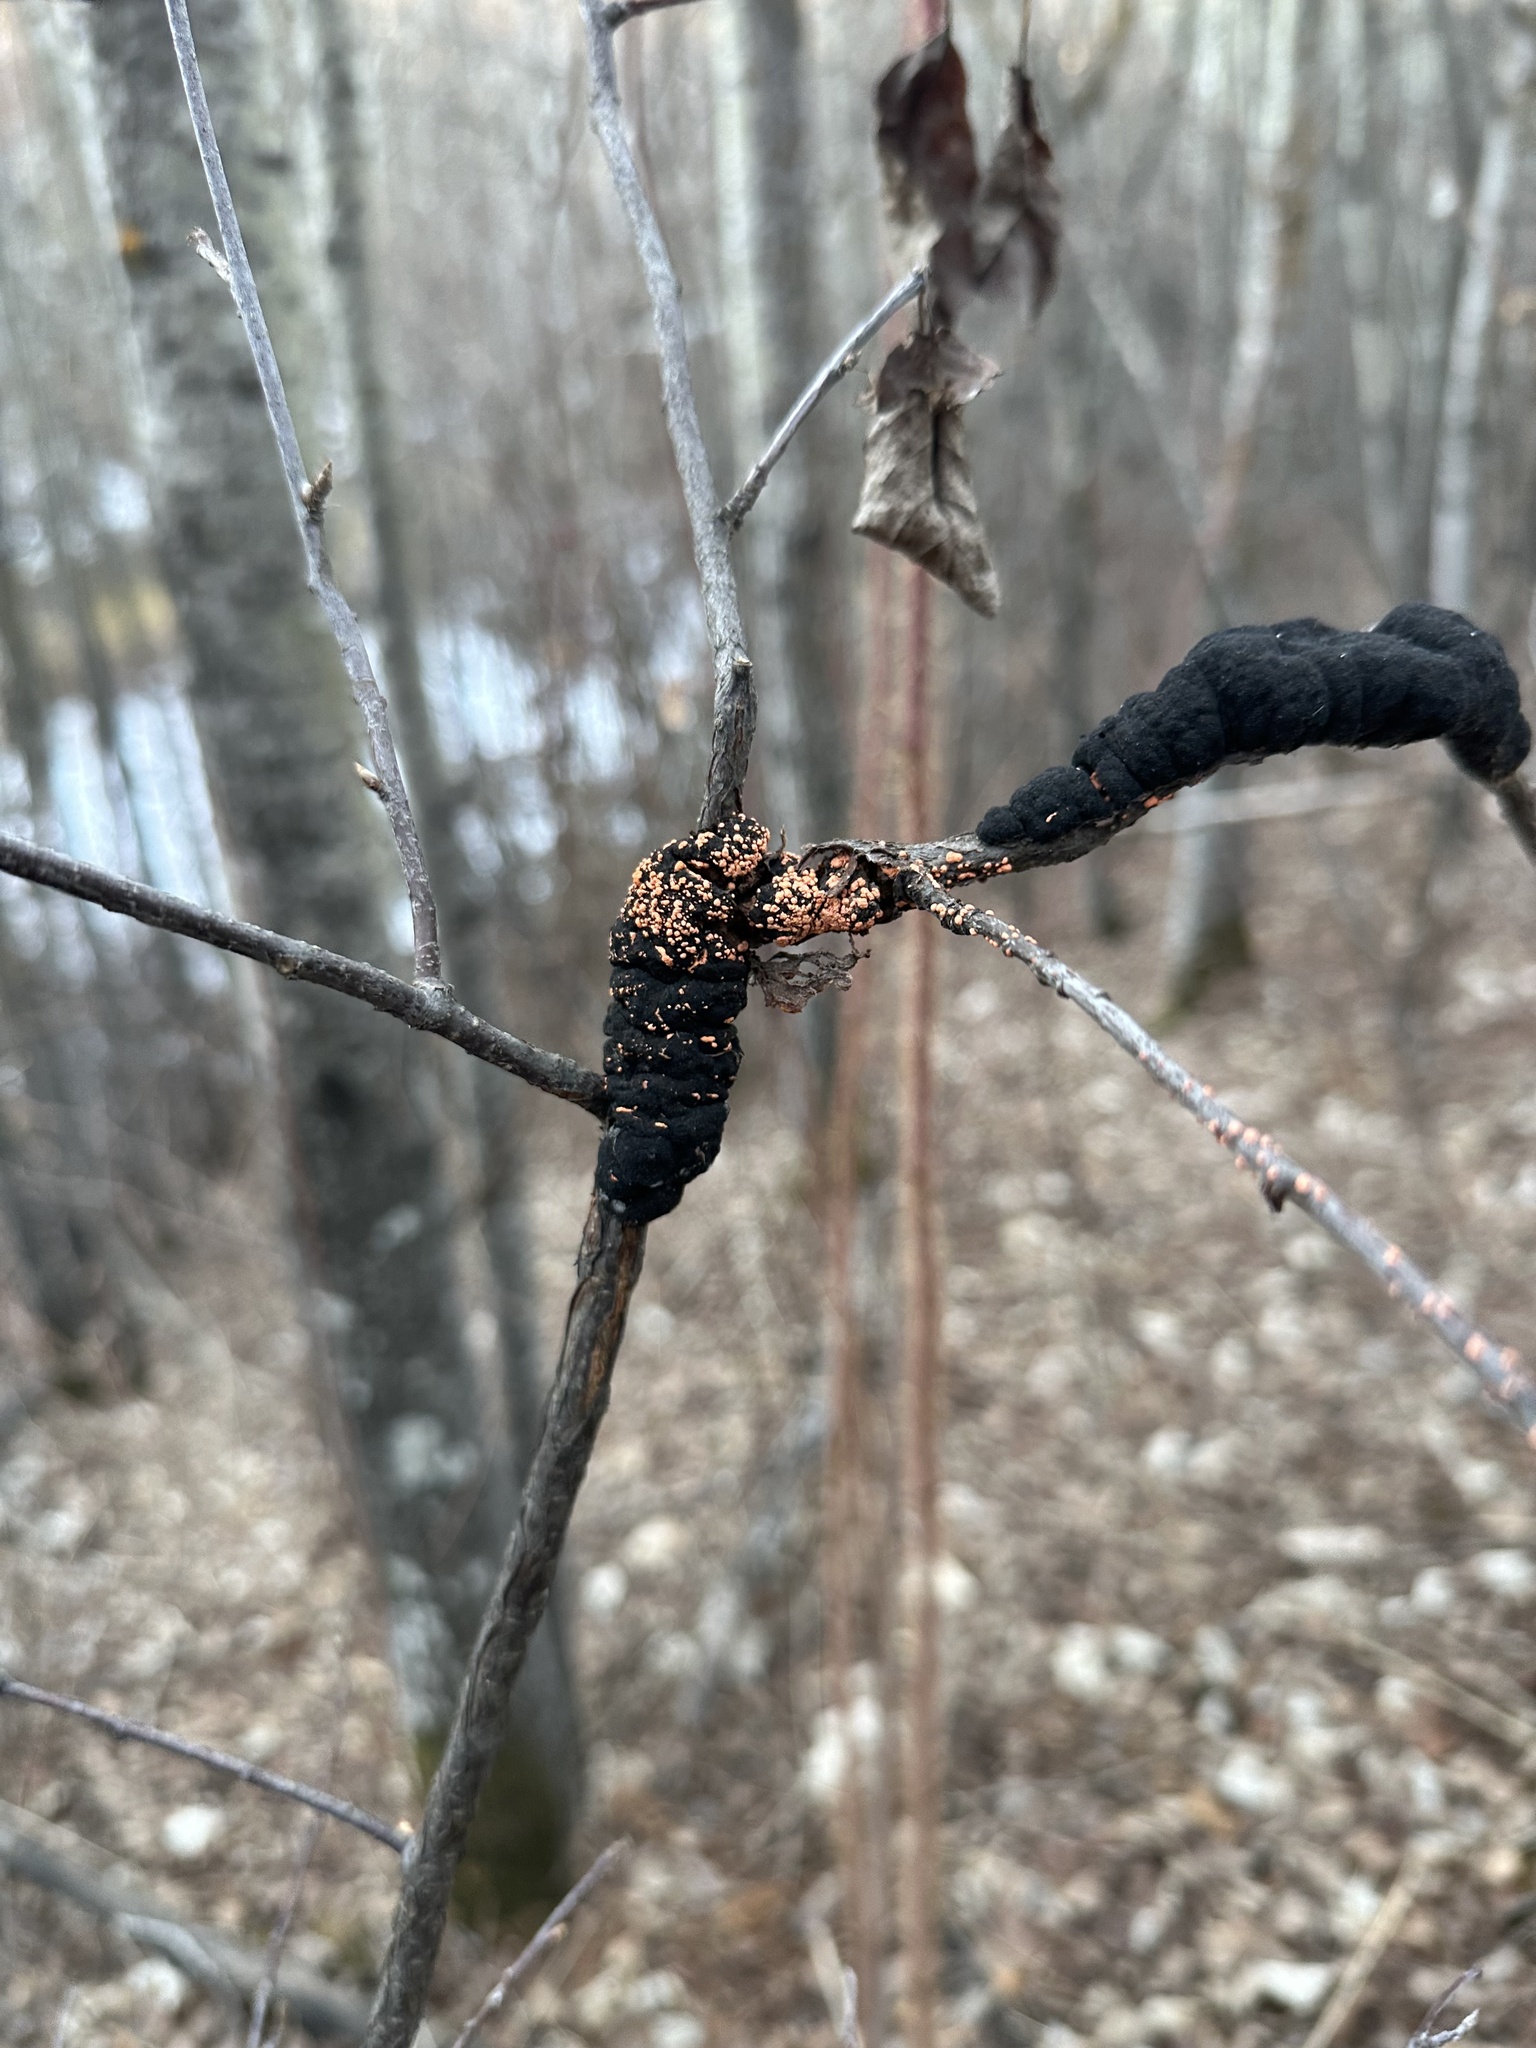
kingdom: Fungi
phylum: Ascomycota
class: Dothideomycetes
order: Venturiales
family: Venturiaceae
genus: Apiosporina
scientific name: Apiosporina morbosa
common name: Black knot
